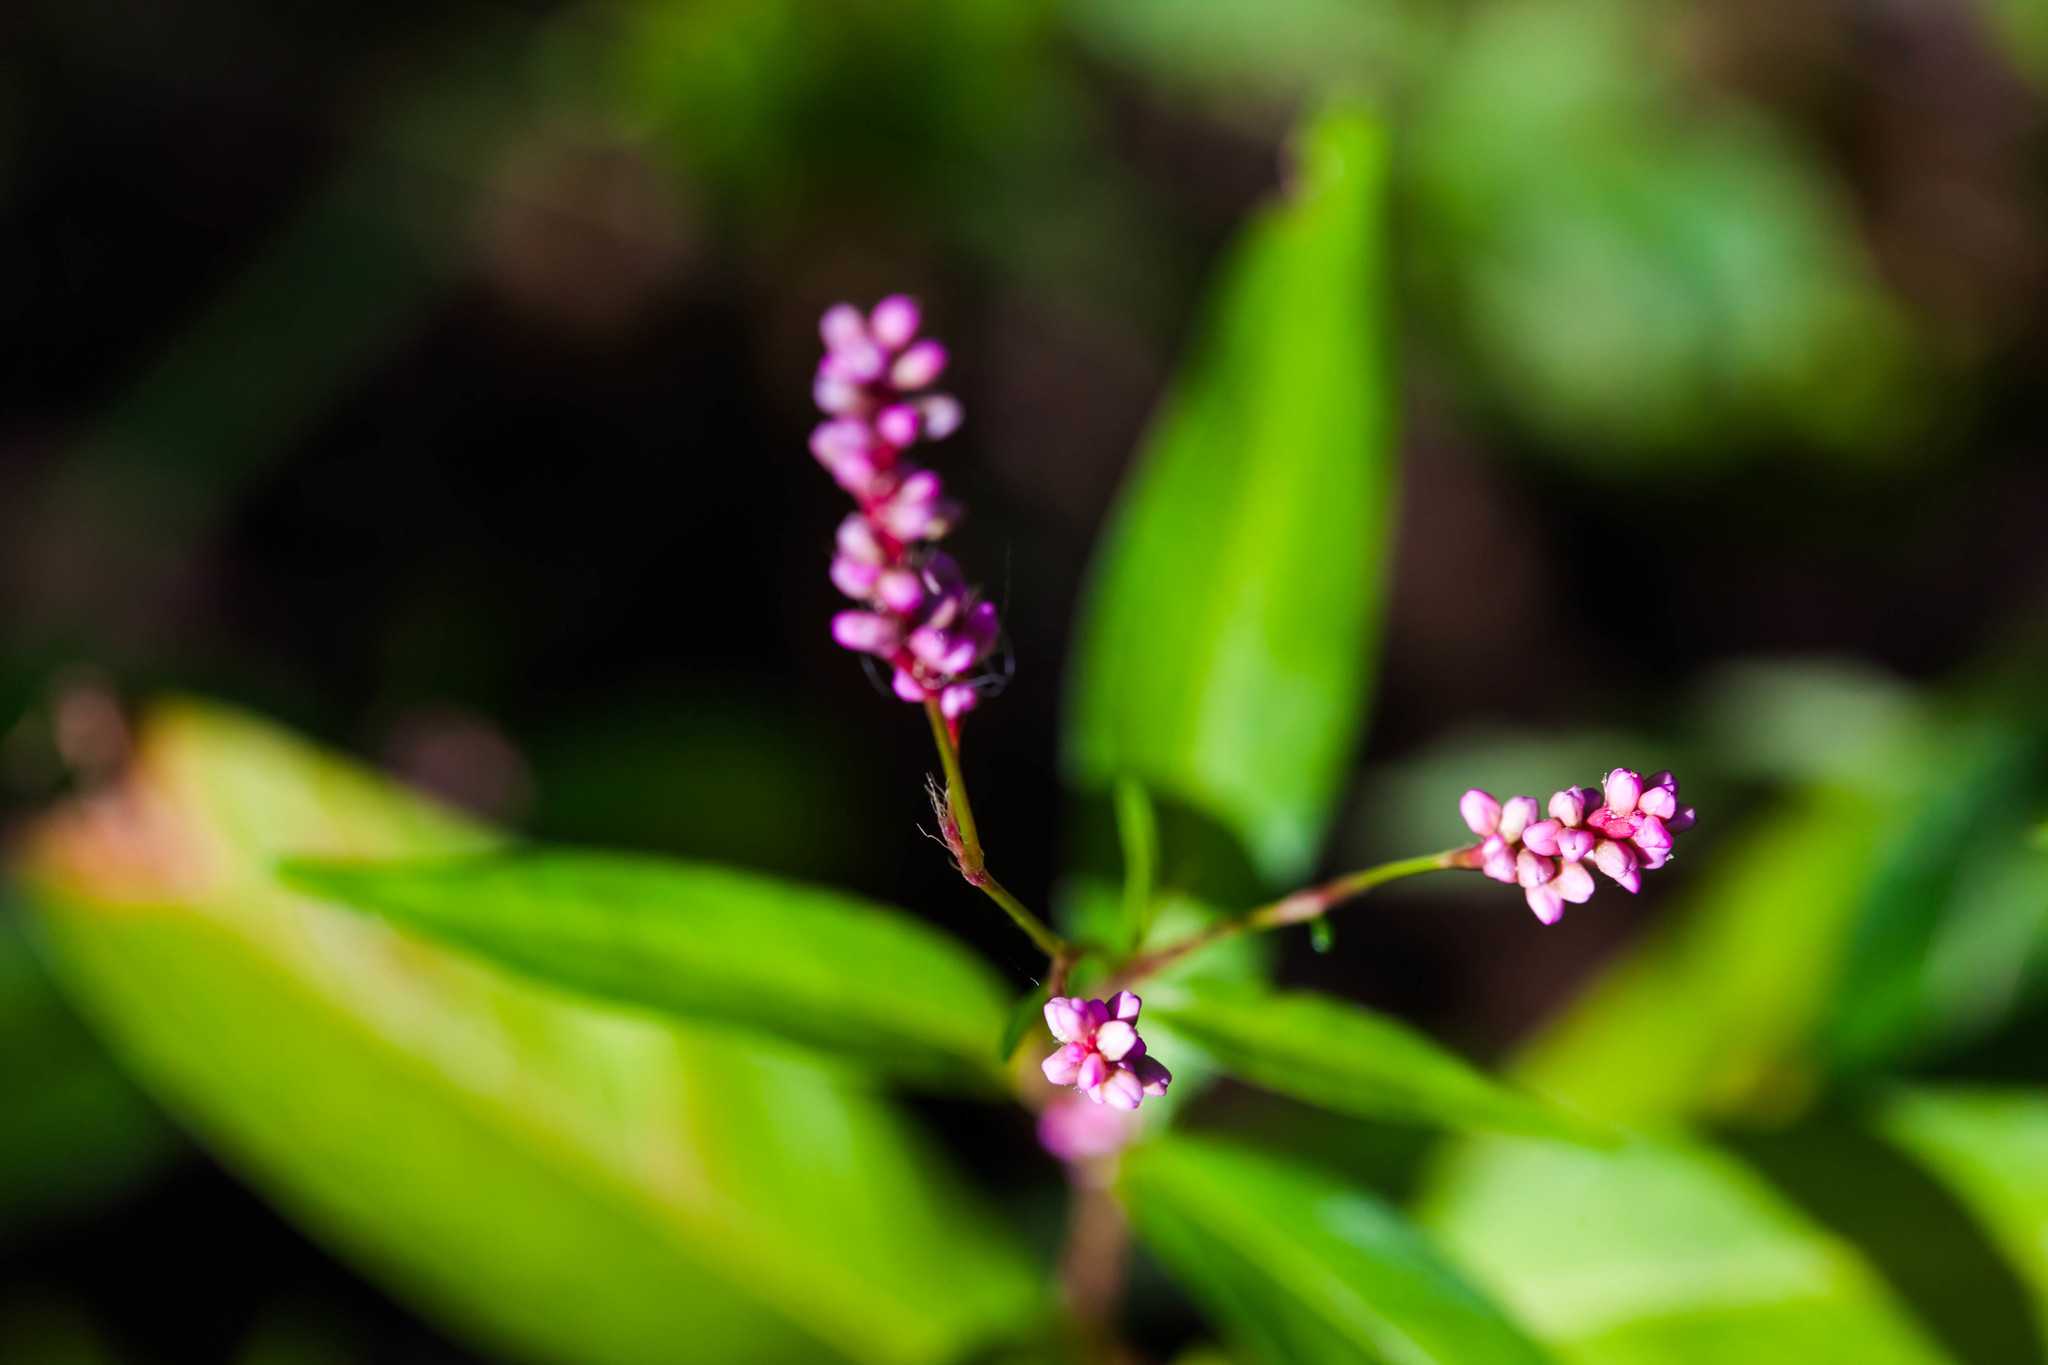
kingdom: Plantae
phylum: Tracheophyta
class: Magnoliopsida
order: Caryophyllales
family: Polygonaceae
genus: Persicaria
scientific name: Persicaria longiseta
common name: Bristly lady's-thumb
